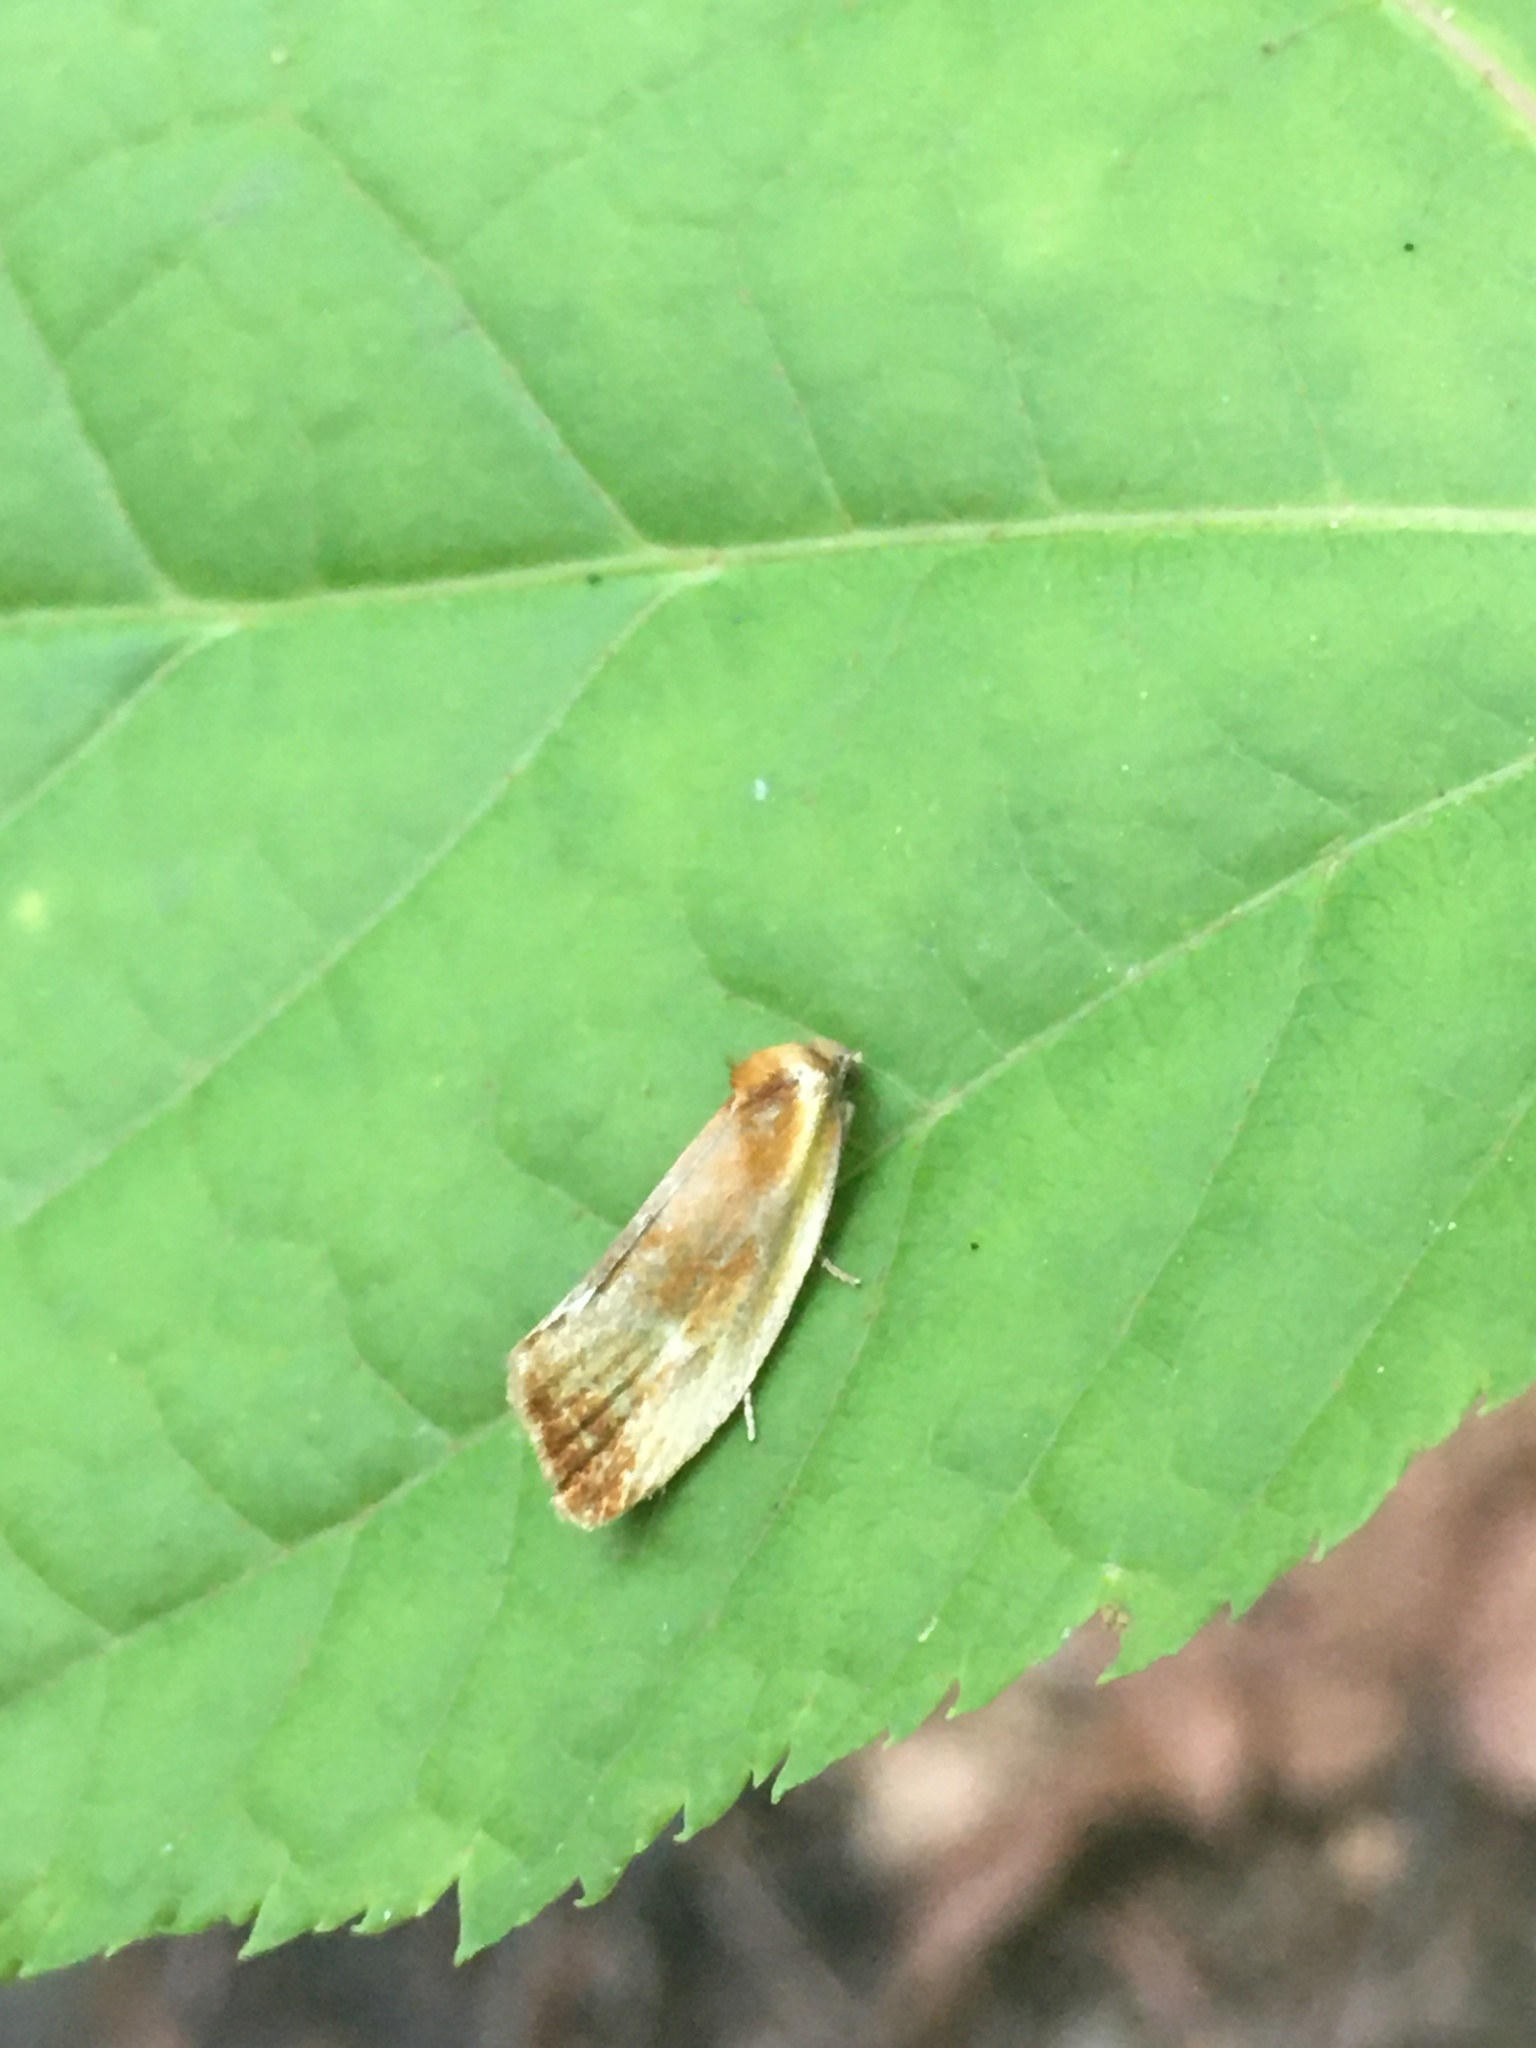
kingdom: Animalia
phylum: Arthropoda
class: Insecta
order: Lepidoptera
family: Tortricidae
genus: Eulia
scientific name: Eulia ministrana
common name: Brassy twist
